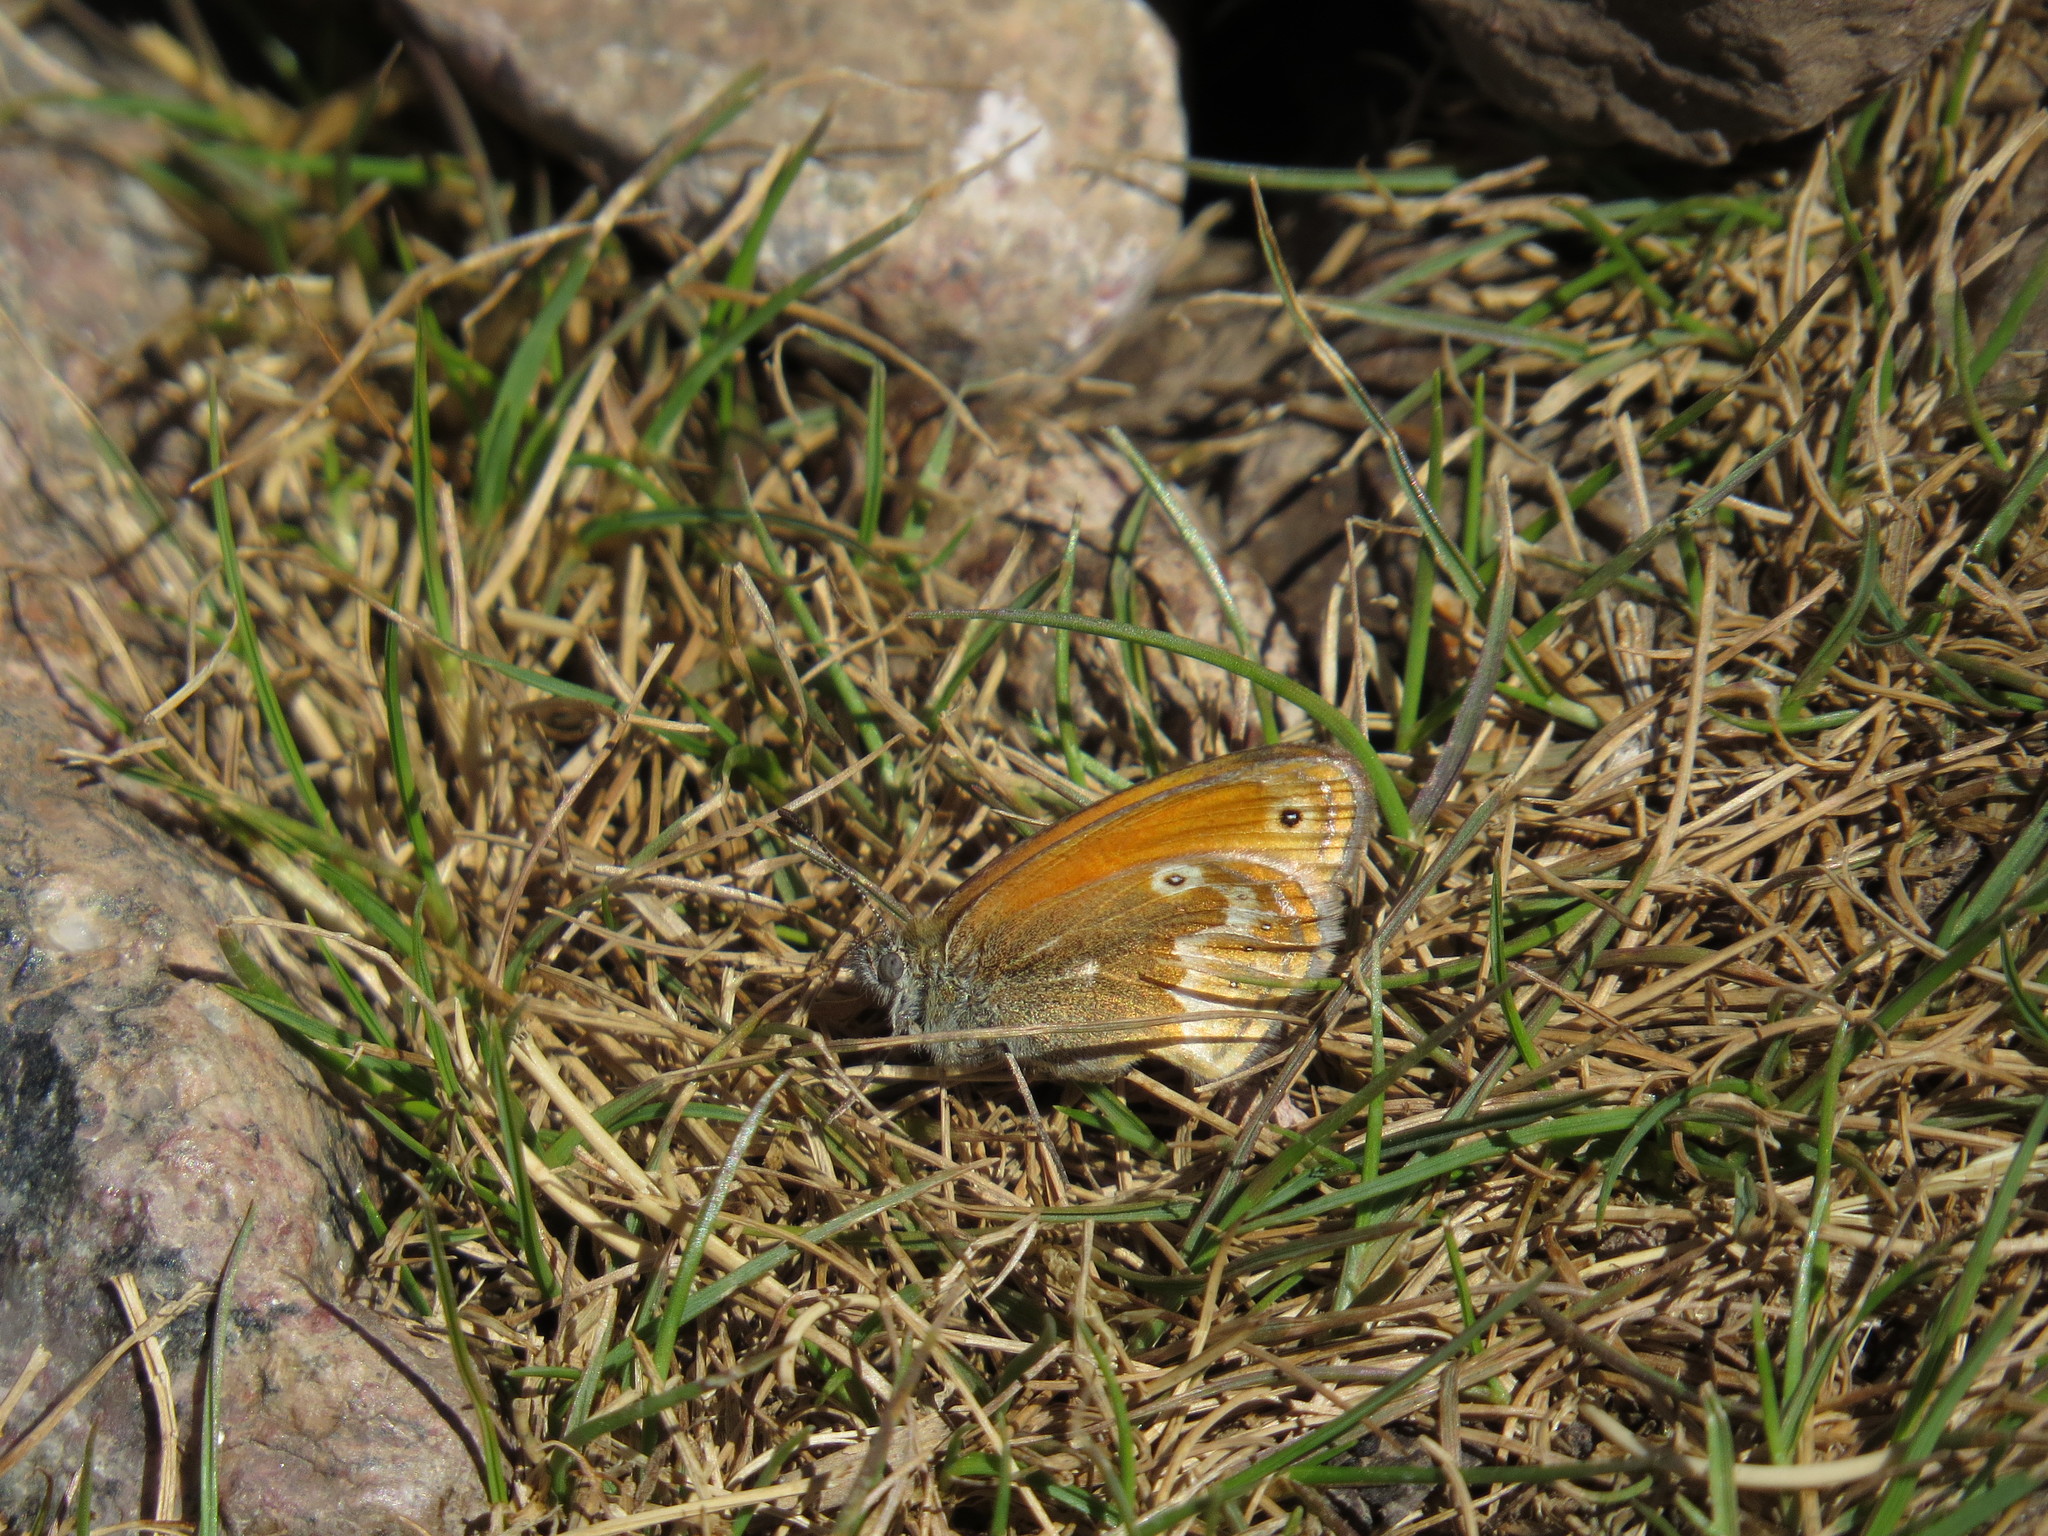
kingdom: Animalia
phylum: Arthropoda
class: Insecta
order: Lepidoptera
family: Nymphalidae
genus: Coenonympha
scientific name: Coenonympha corinna
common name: Corsican heath
